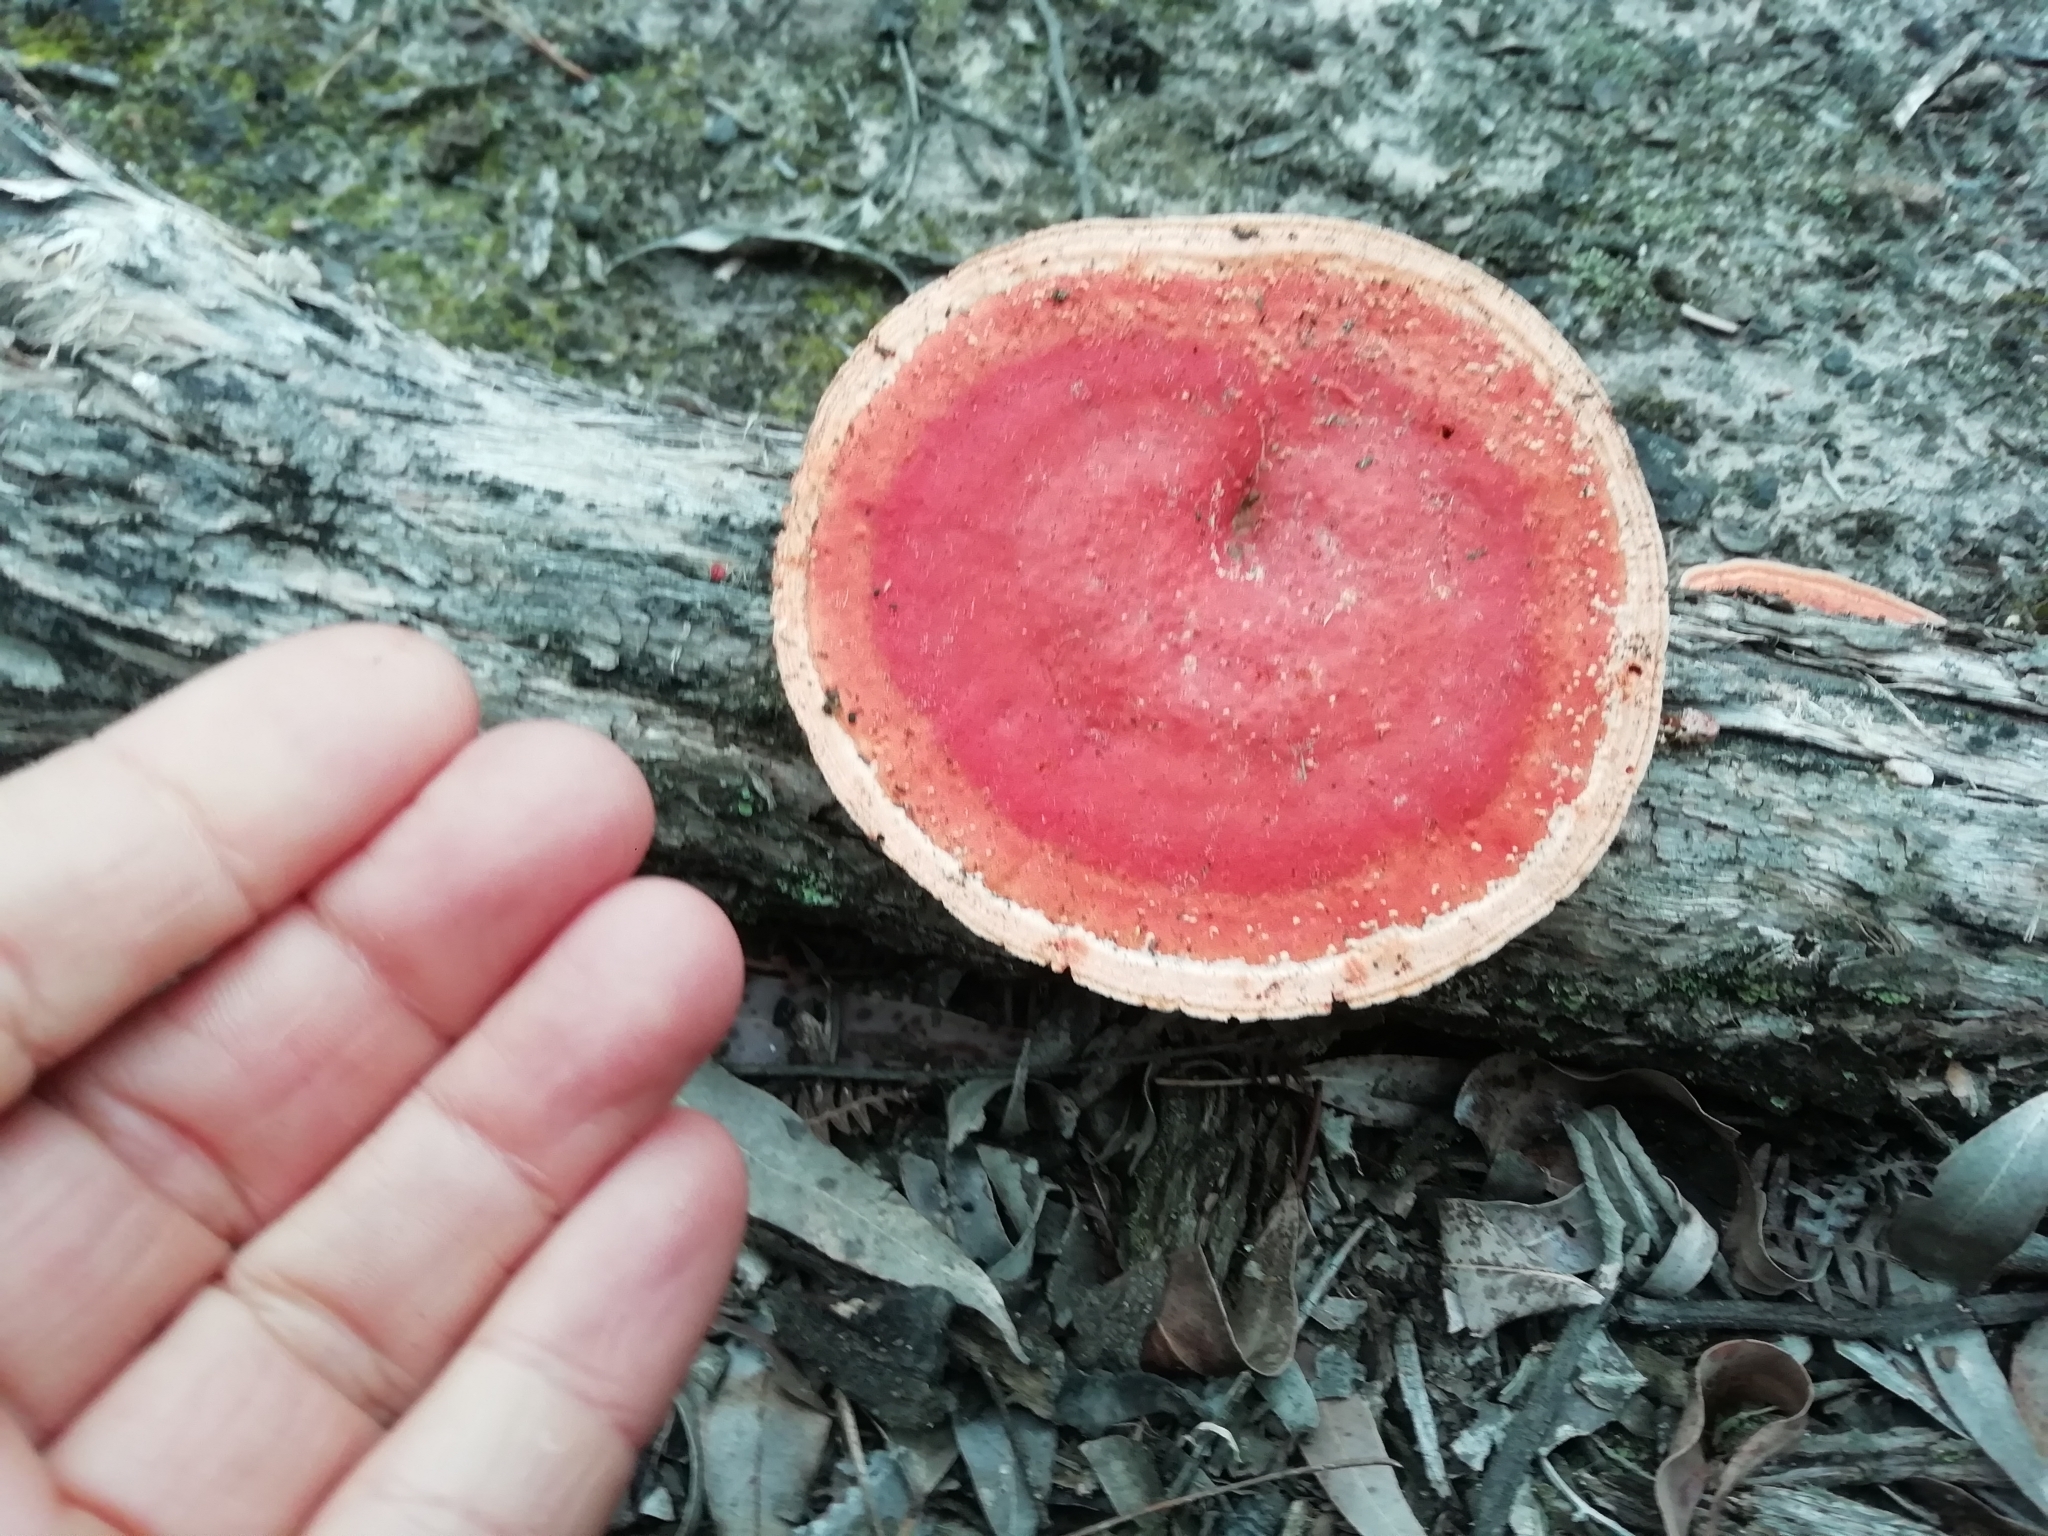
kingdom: Fungi
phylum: Basidiomycota
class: Agaricomycetes
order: Polyporales
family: Polyporaceae
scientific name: Polyporaceae
